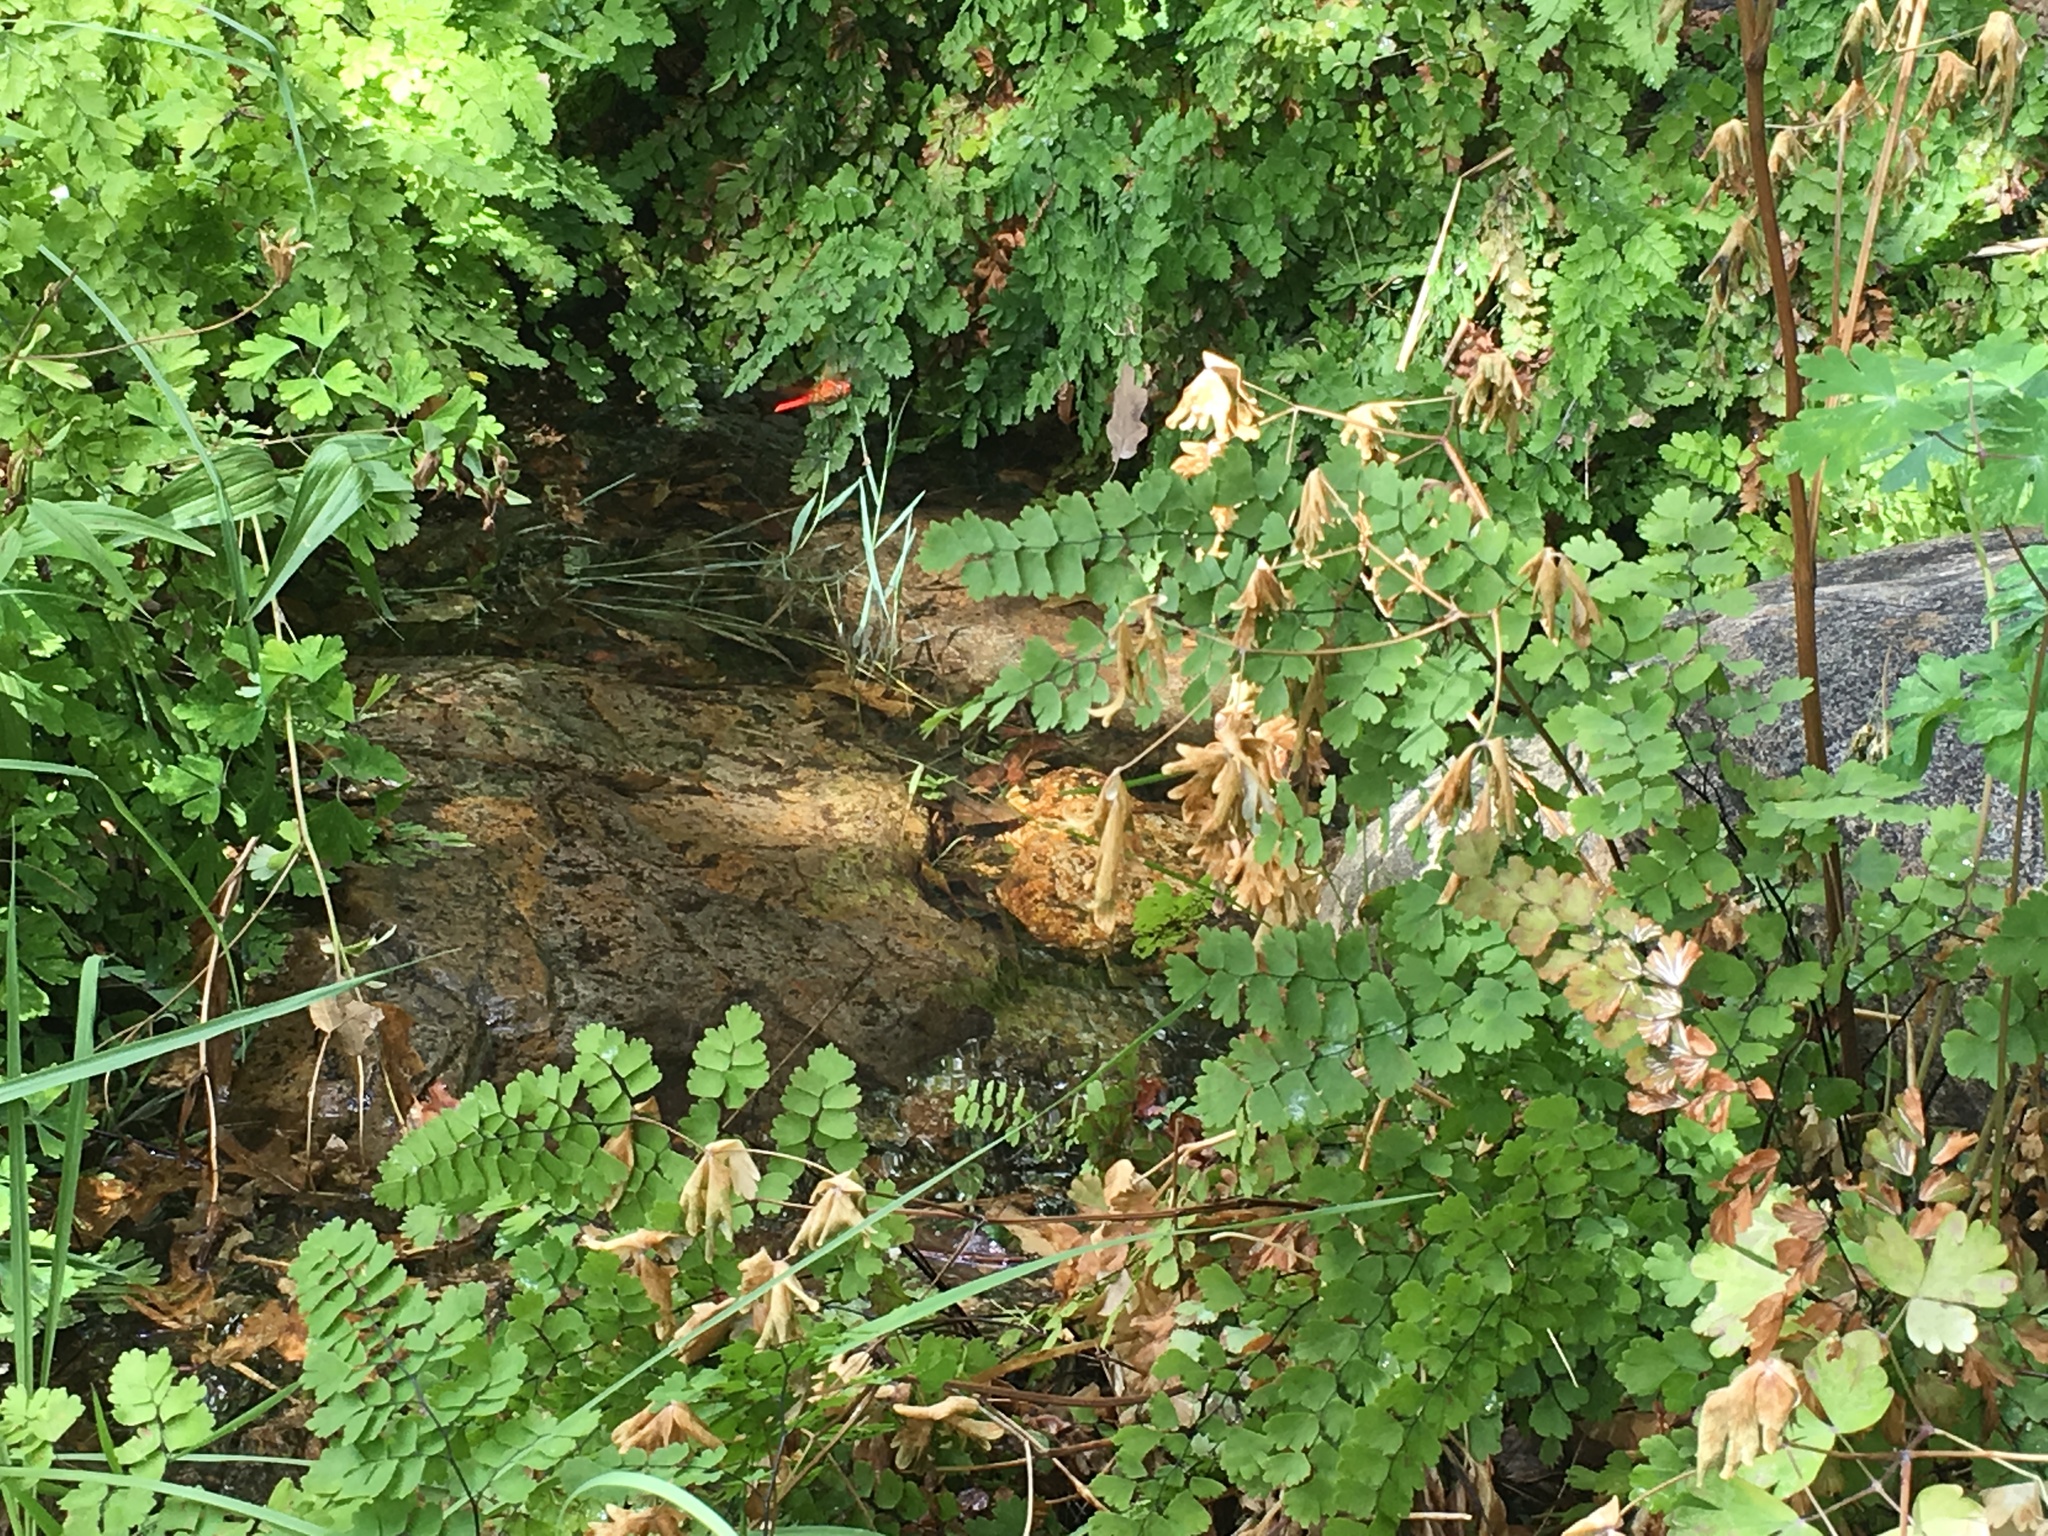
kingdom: Plantae
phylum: Tracheophyta
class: Polypodiopsida
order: Polypodiales
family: Pteridaceae
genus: Adiantum
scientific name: Adiantum capillus-veneris
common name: Maidenhair fern
